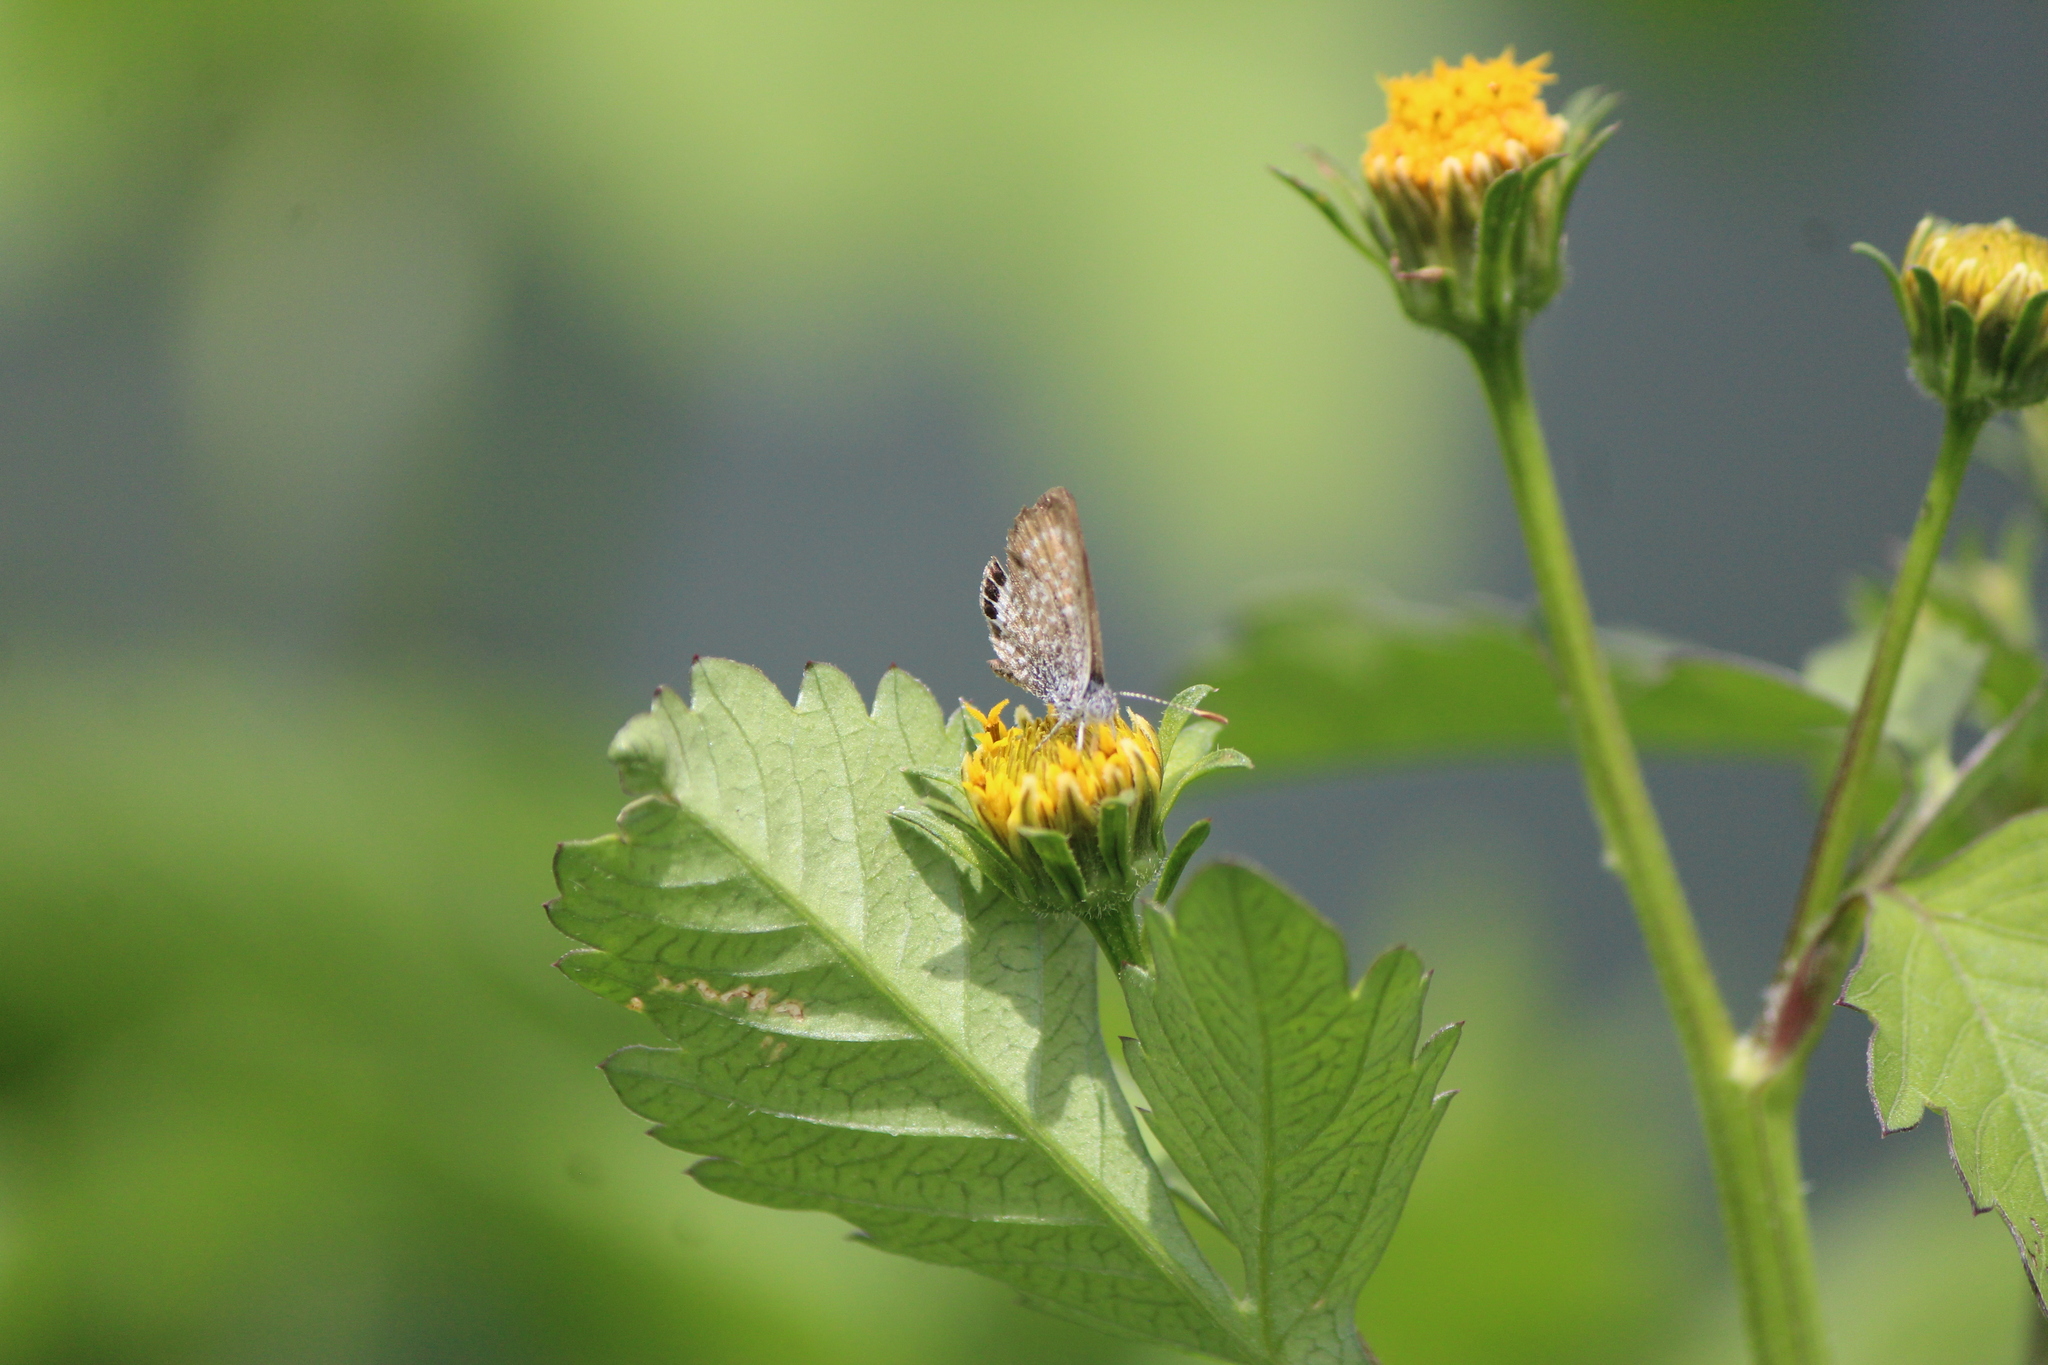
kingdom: Animalia
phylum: Arthropoda
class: Insecta
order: Lepidoptera
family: Lycaenidae
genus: Brephidium
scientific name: Brephidium exilis
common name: Pygmy blue
